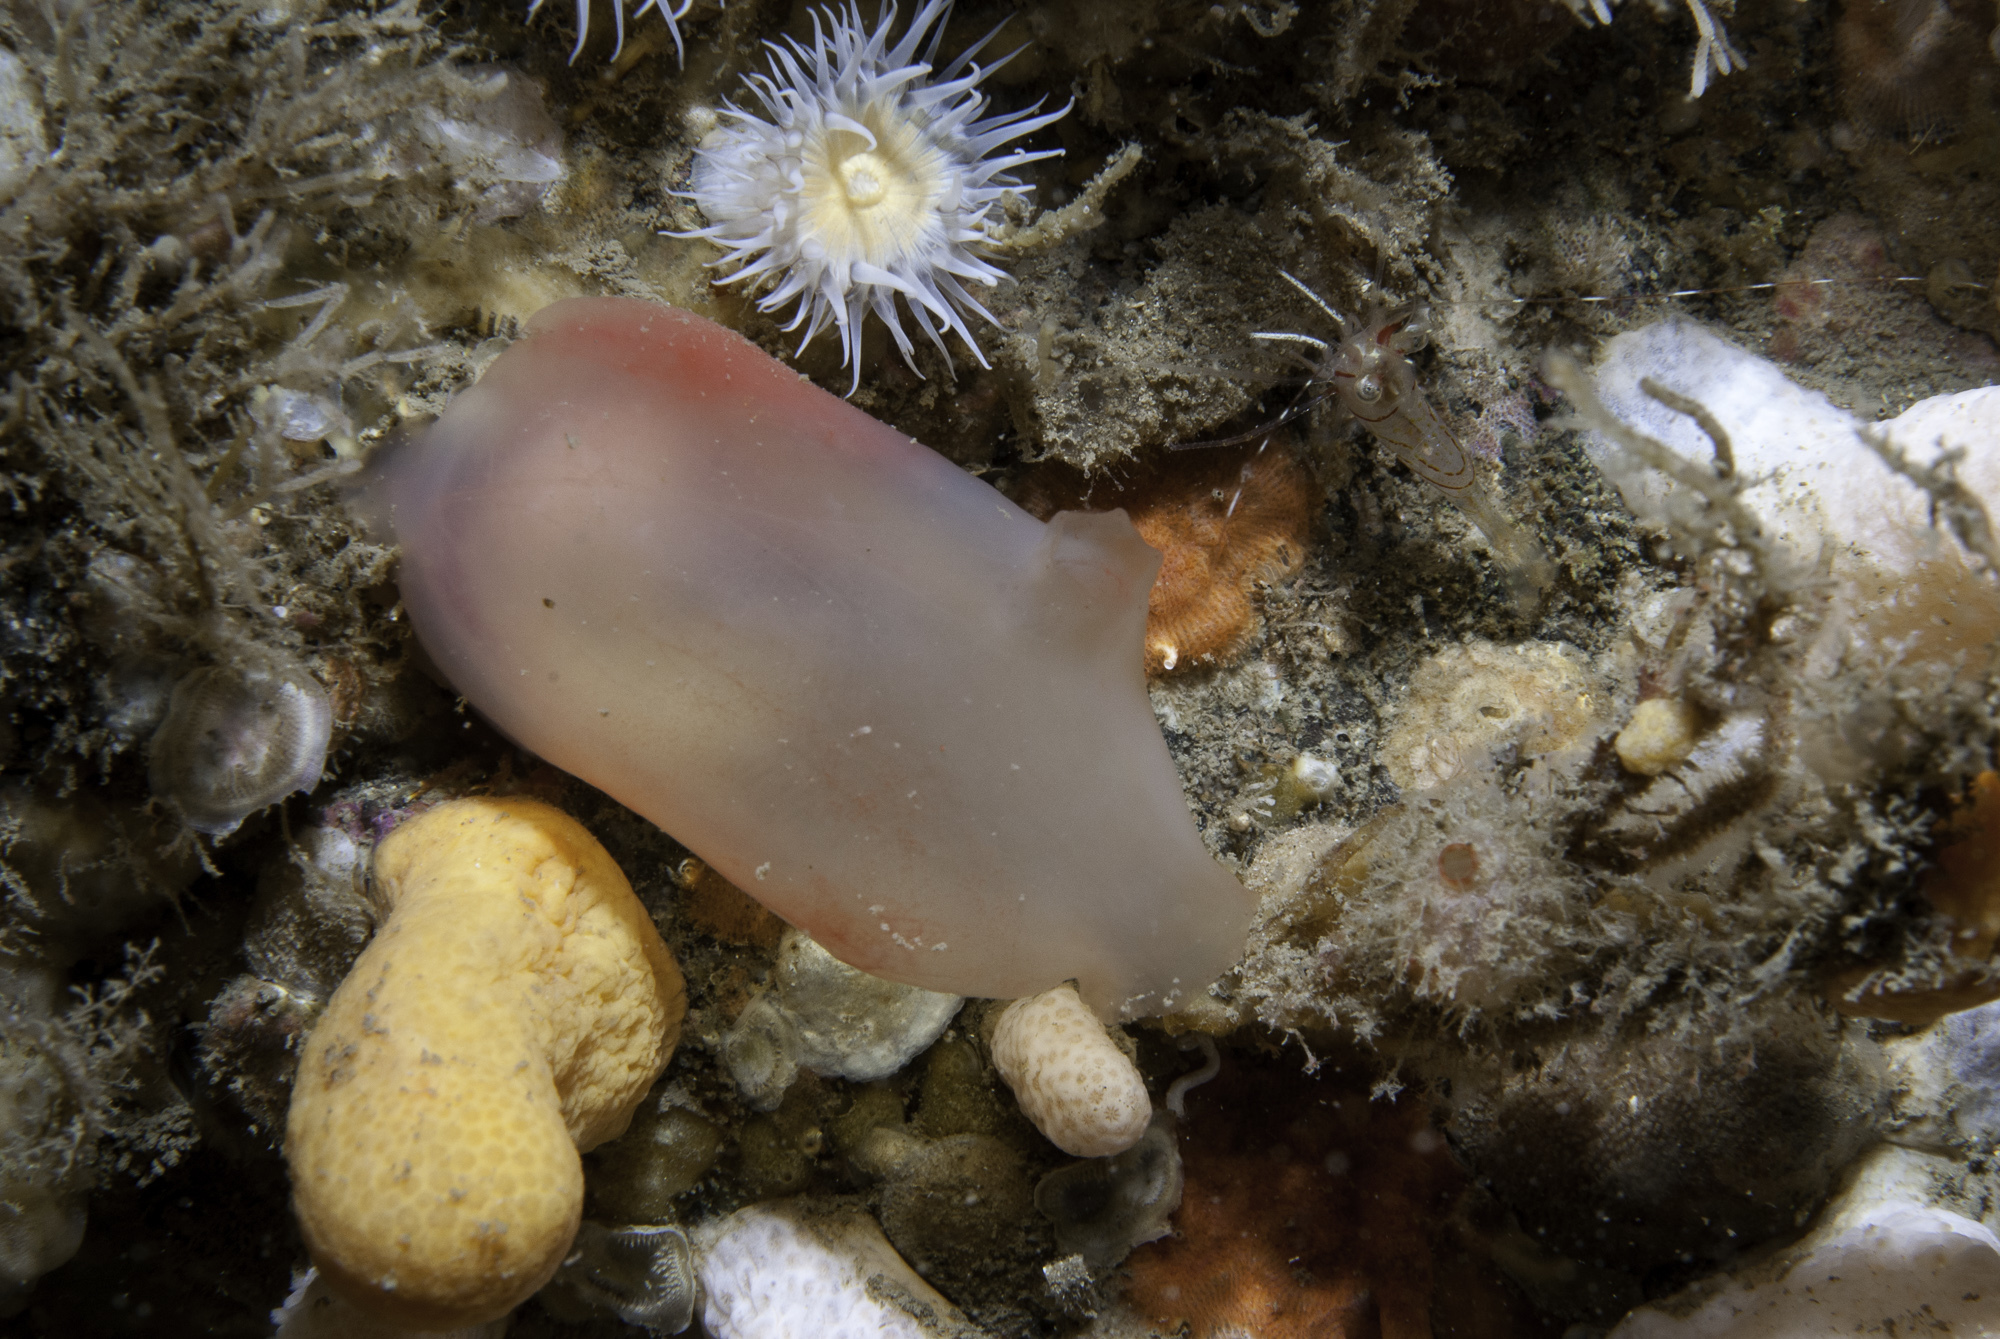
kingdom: Animalia
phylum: Chordata
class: Ascidiacea
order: Phlebobranchia
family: Ascidiidae
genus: Ascidia
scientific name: Ascidia virginea
